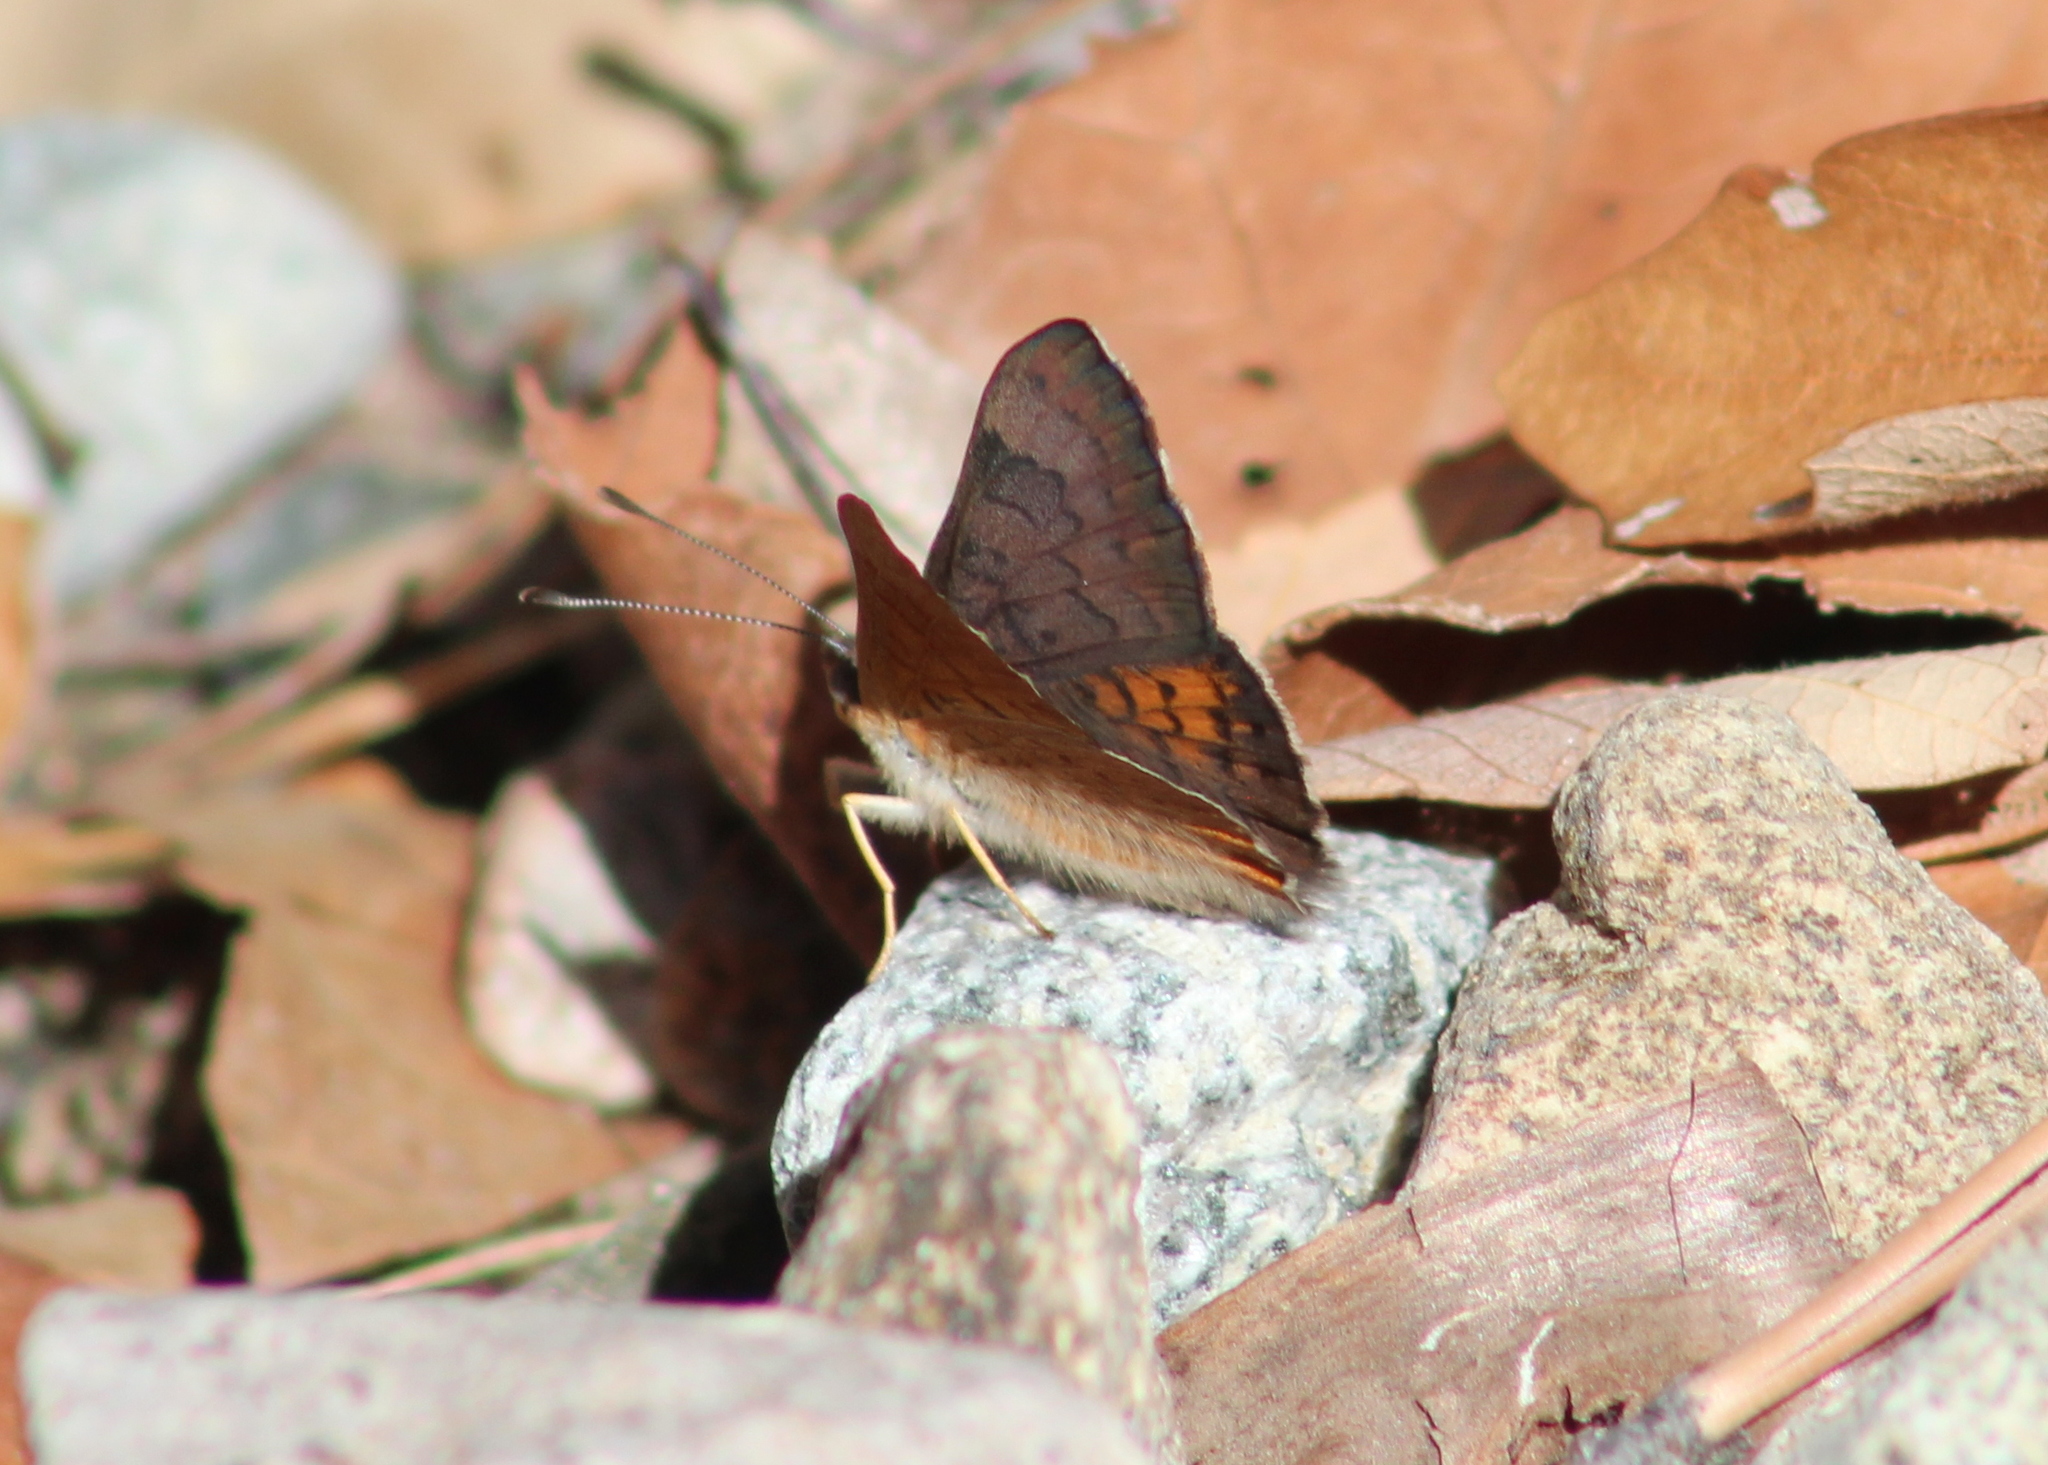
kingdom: Animalia
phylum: Arthropoda
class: Insecta
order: Lepidoptera
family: Riodinidae
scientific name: Riodinidae
